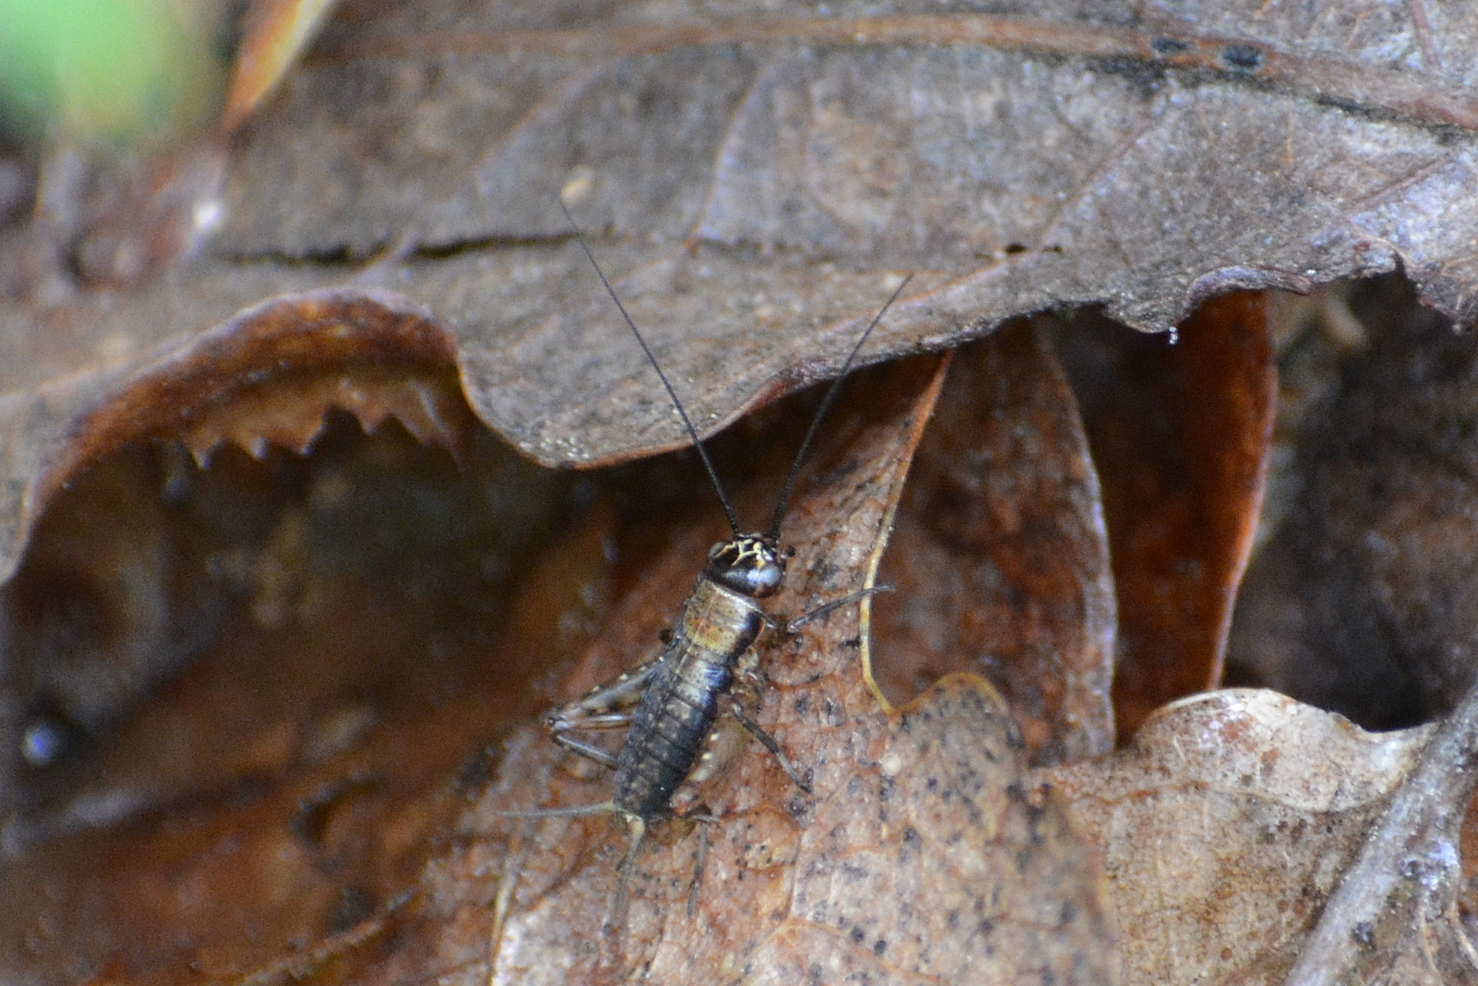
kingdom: Animalia
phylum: Arthropoda
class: Insecta
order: Orthoptera
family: Trigonidiidae
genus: Nemobius
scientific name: Nemobius sylvestris
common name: Wood-cricket
